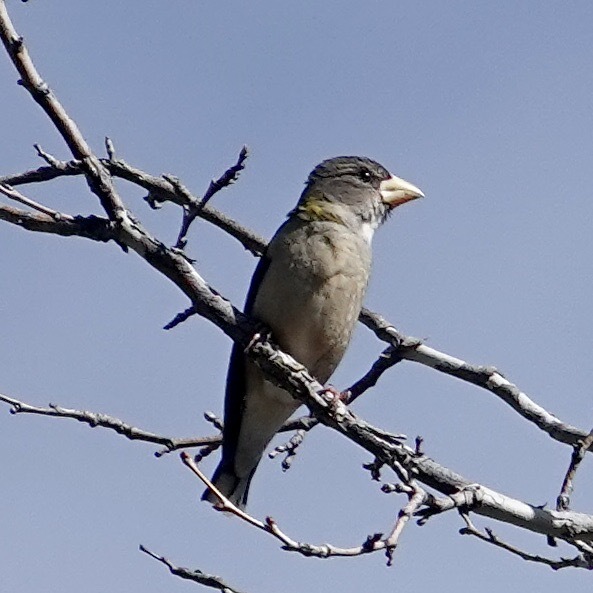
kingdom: Animalia
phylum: Chordata
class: Aves
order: Passeriformes
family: Fringillidae
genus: Hesperiphona
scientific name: Hesperiphona vespertina
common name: Evening grosbeak
